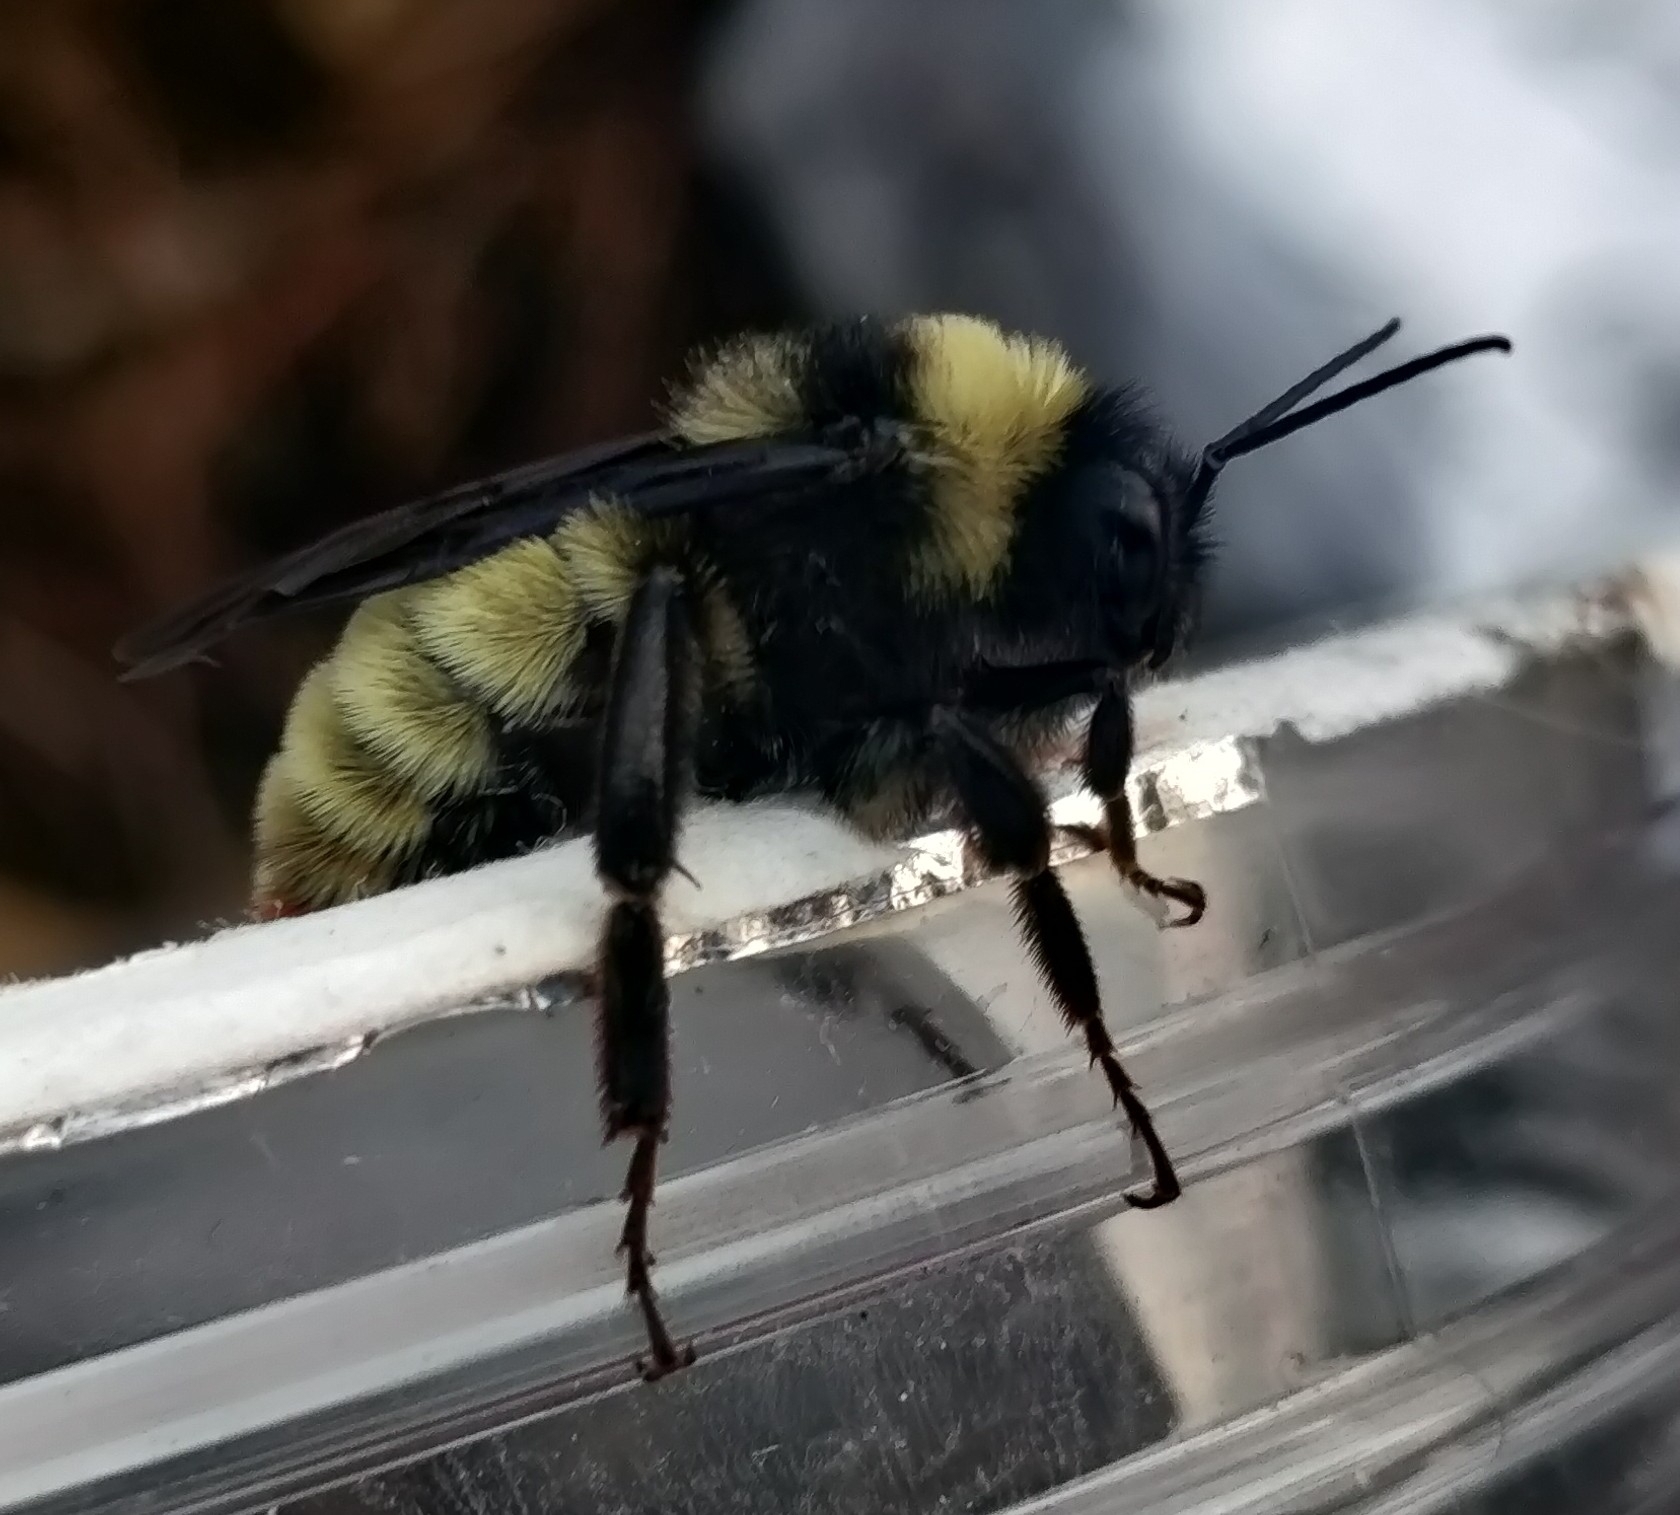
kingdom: Animalia
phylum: Arthropoda
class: Insecta
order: Hymenoptera
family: Apidae
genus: Bombus
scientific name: Bombus pensylvanicus
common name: Bumble bee
